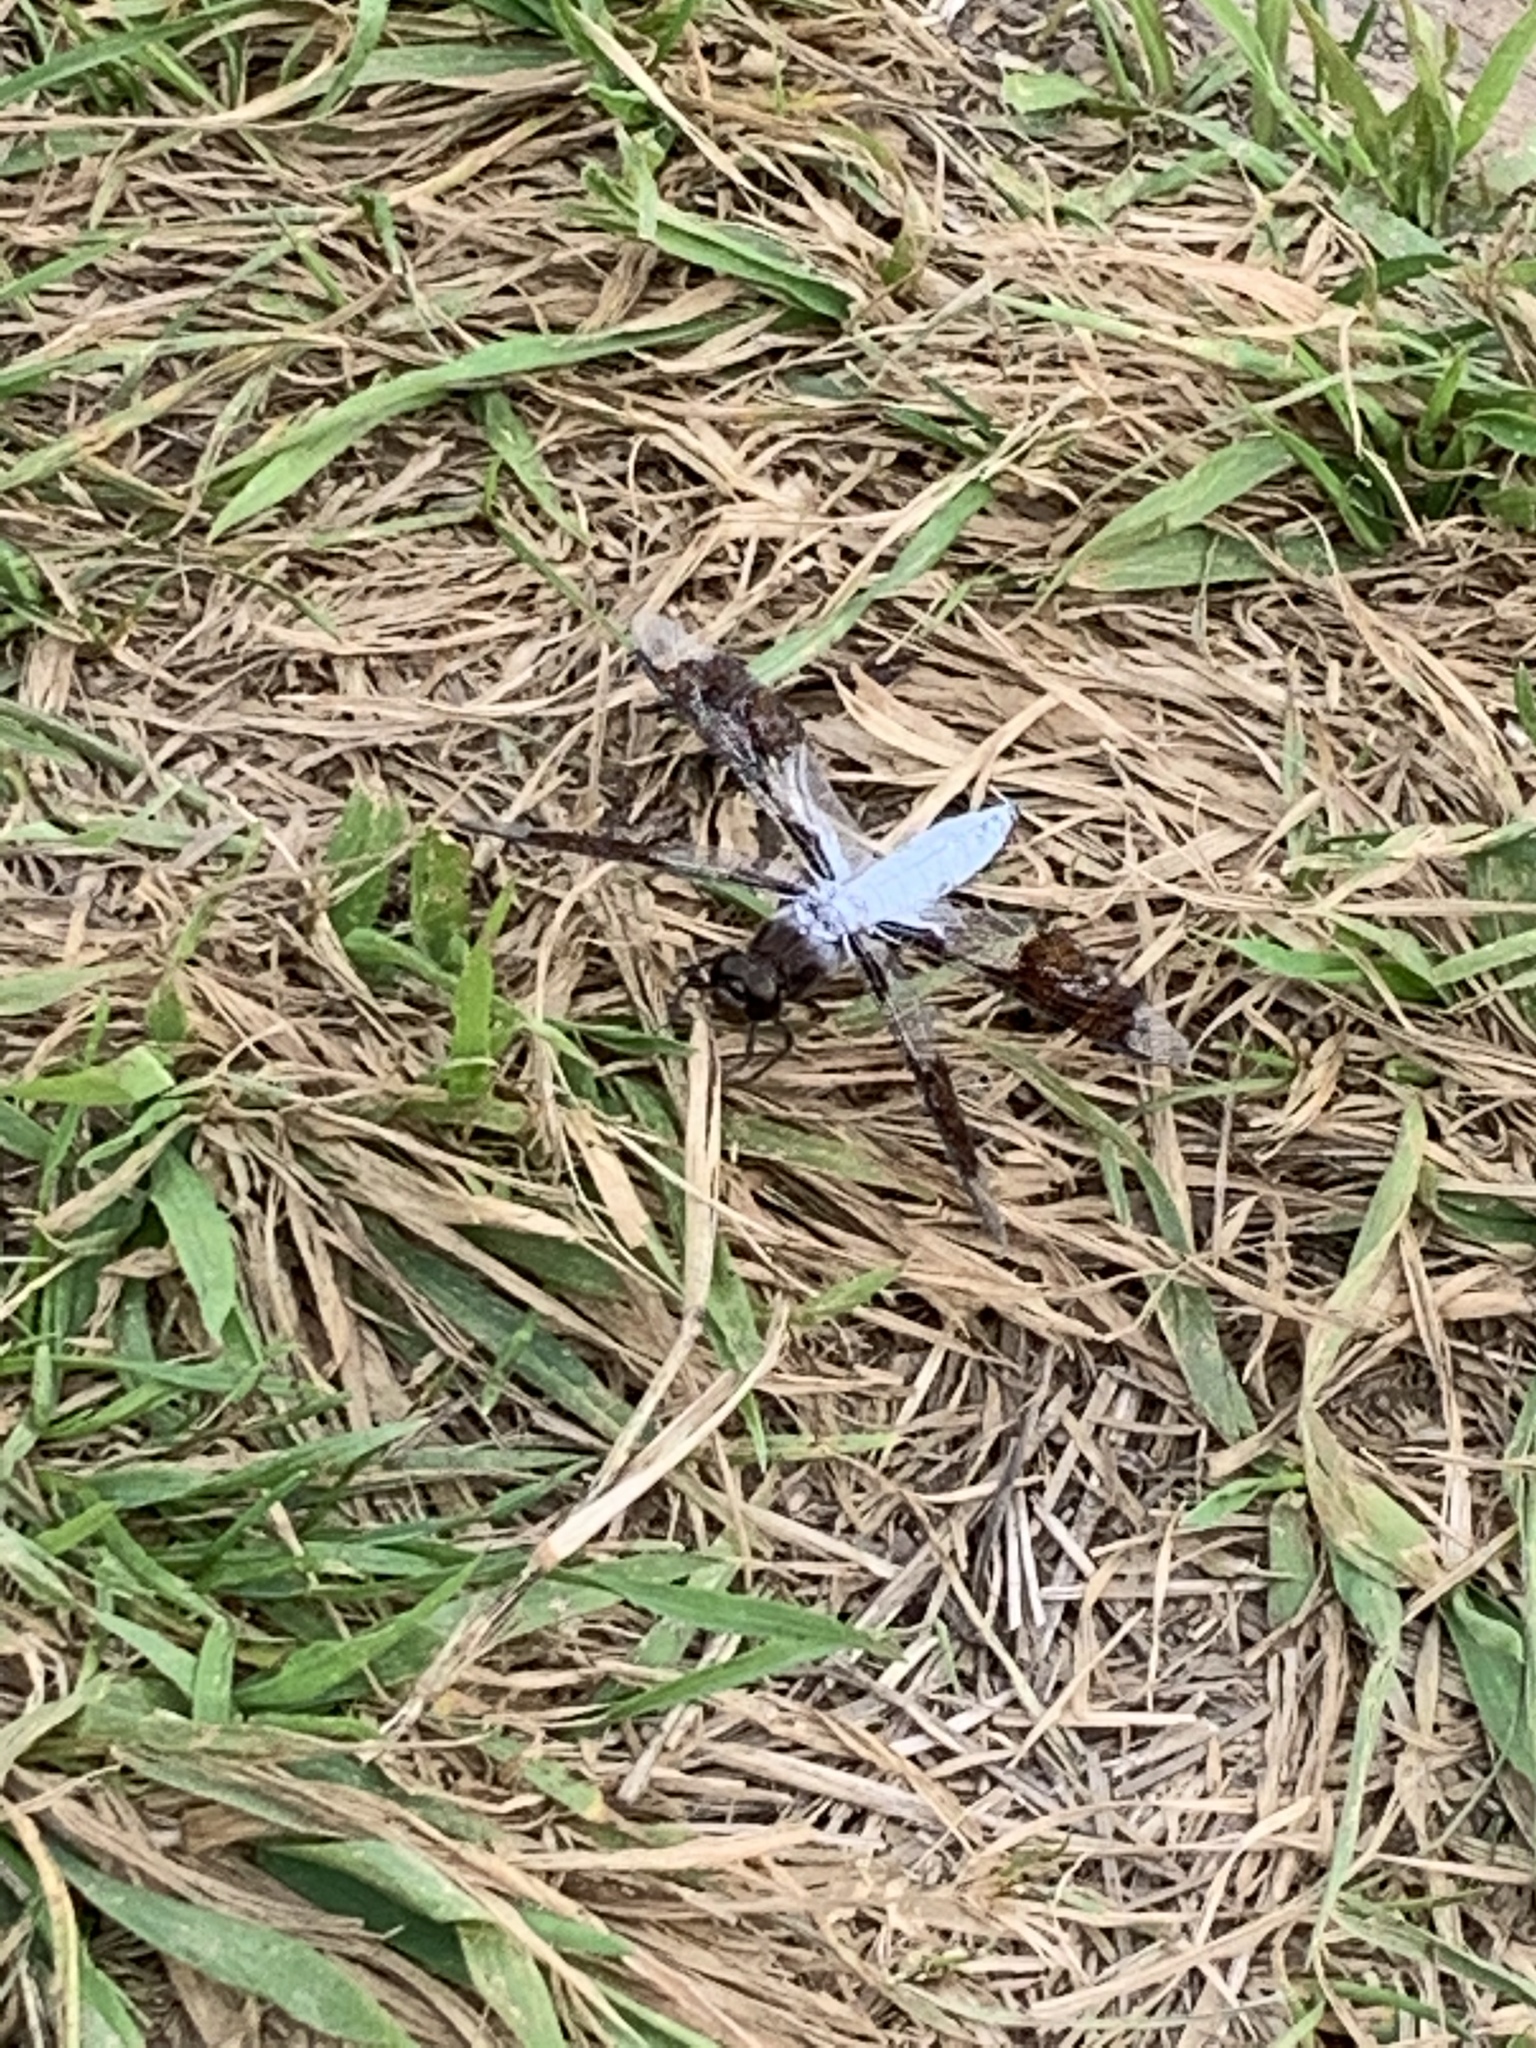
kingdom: Animalia
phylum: Arthropoda
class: Insecta
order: Odonata
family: Libellulidae
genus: Plathemis
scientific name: Plathemis lydia
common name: Common whitetail
